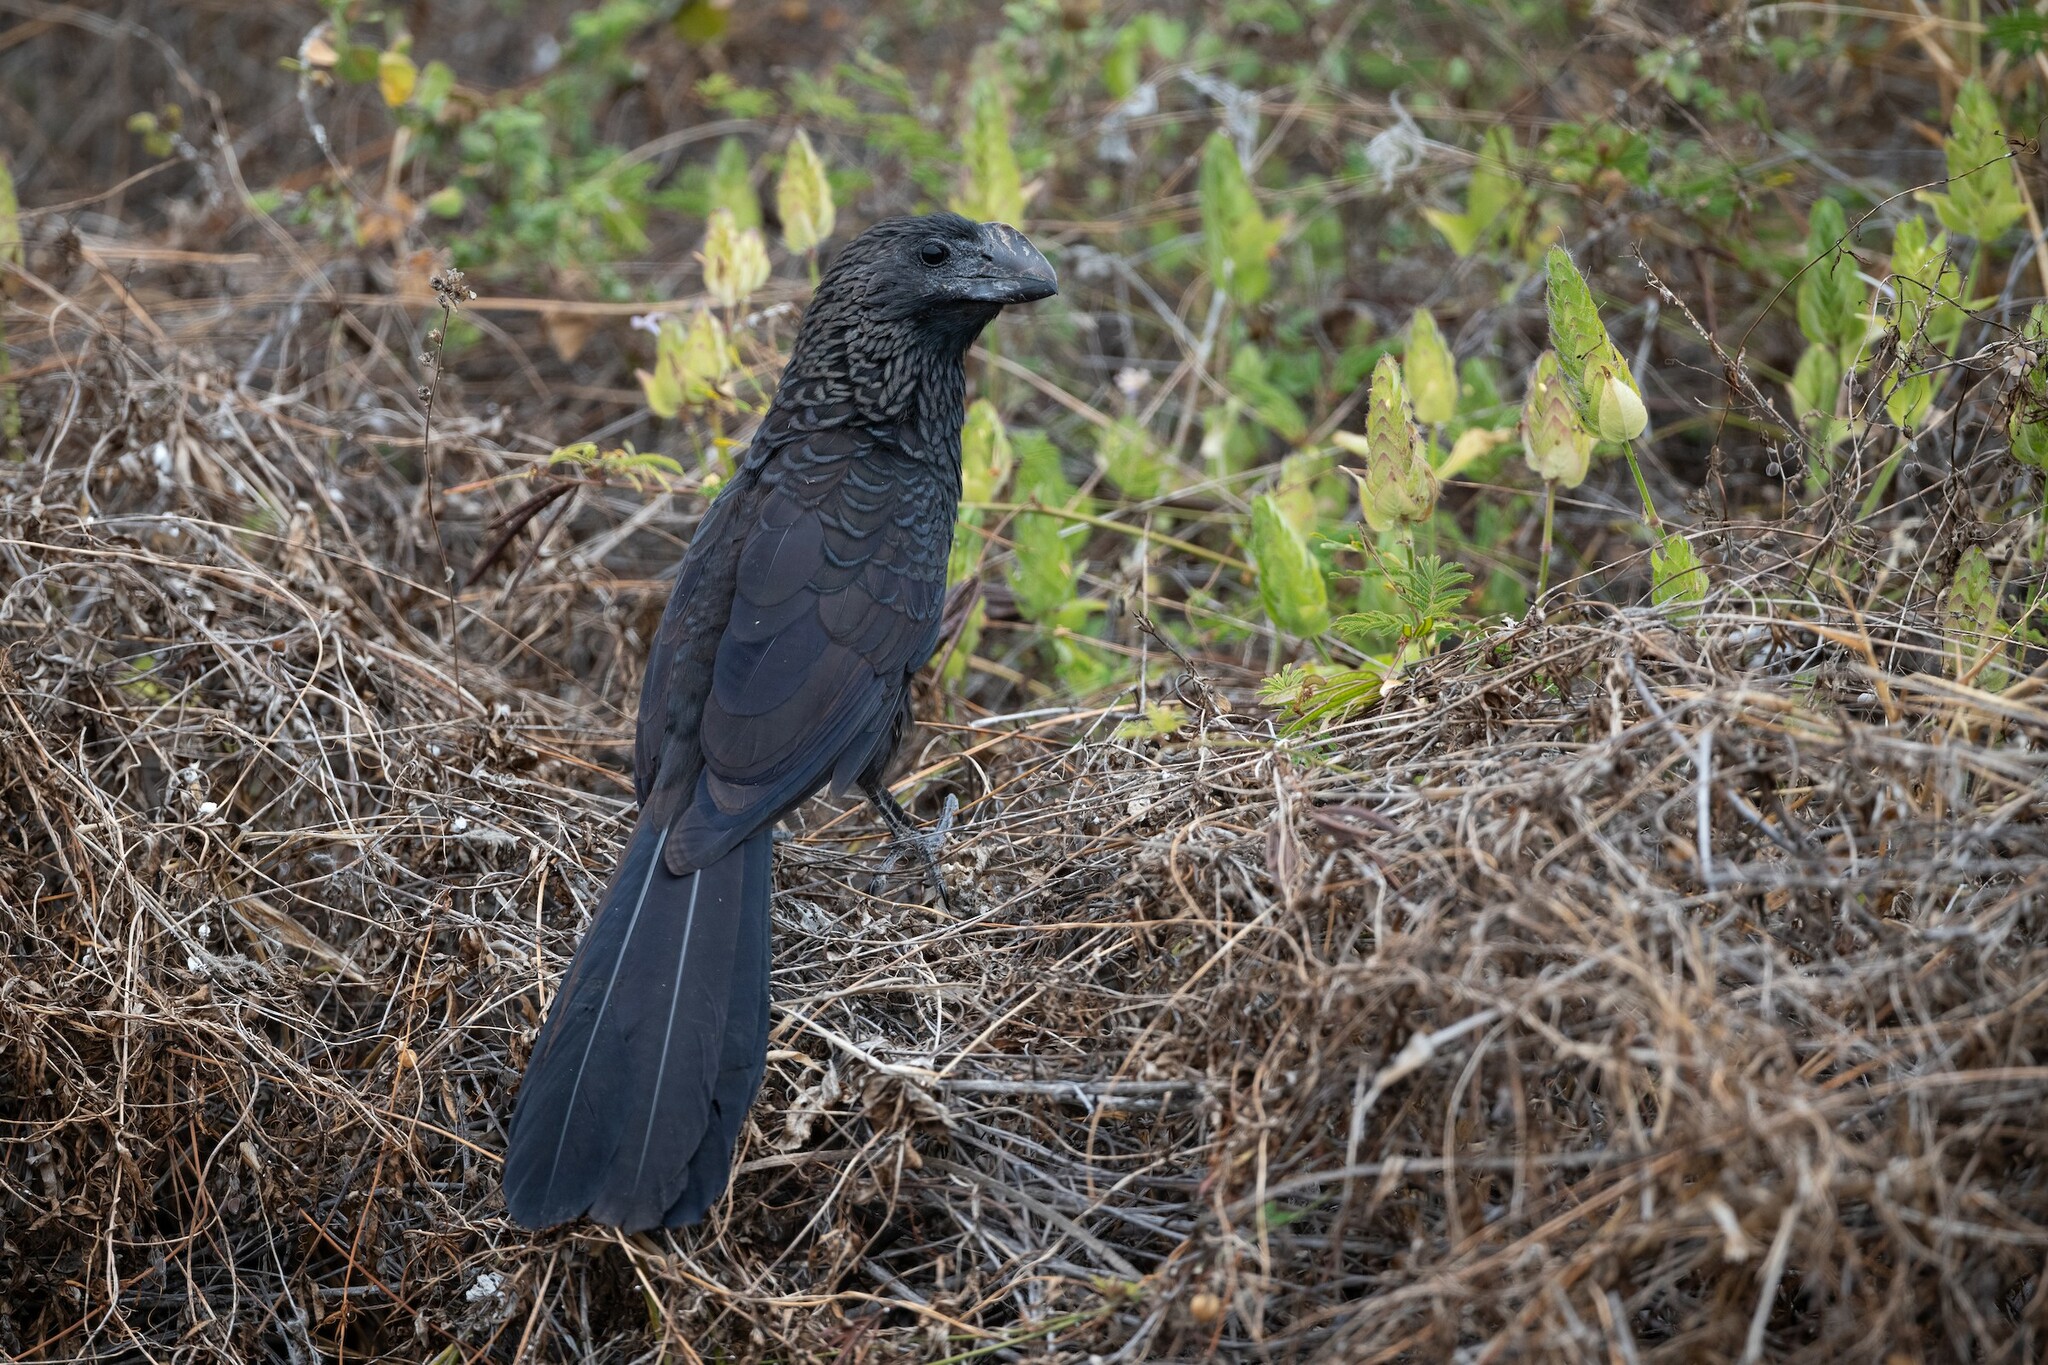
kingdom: Animalia
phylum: Chordata
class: Aves
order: Cuculiformes
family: Cuculidae
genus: Crotophaga
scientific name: Crotophaga ani
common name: Smooth-billed ani
